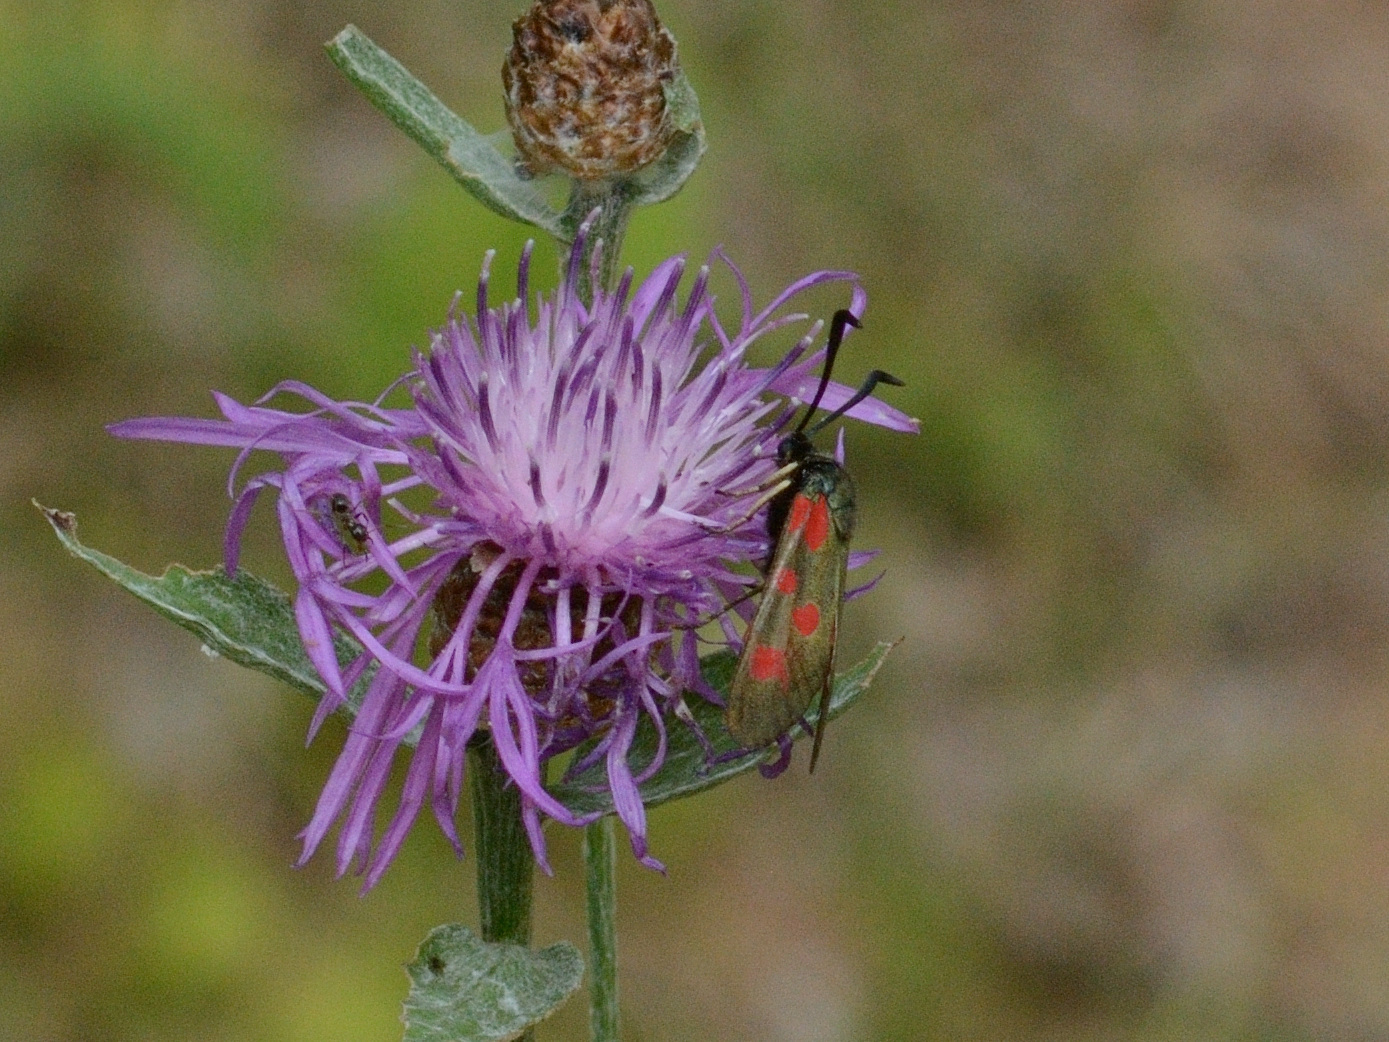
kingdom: Animalia
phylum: Arthropoda
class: Insecta
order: Lepidoptera
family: Zygaenidae
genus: Zygaena
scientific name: Zygaena centaureae
